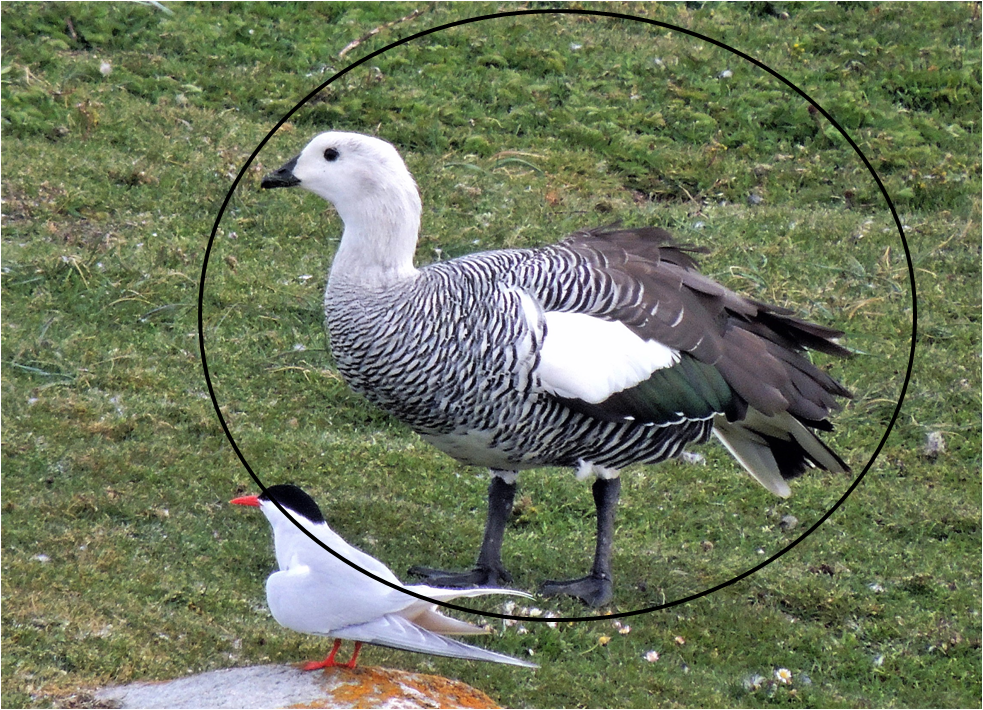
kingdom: Animalia
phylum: Chordata
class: Aves
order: Anseriformes
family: Anatidae
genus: Chloephaga
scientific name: Chloephaga picta
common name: Upland goose
